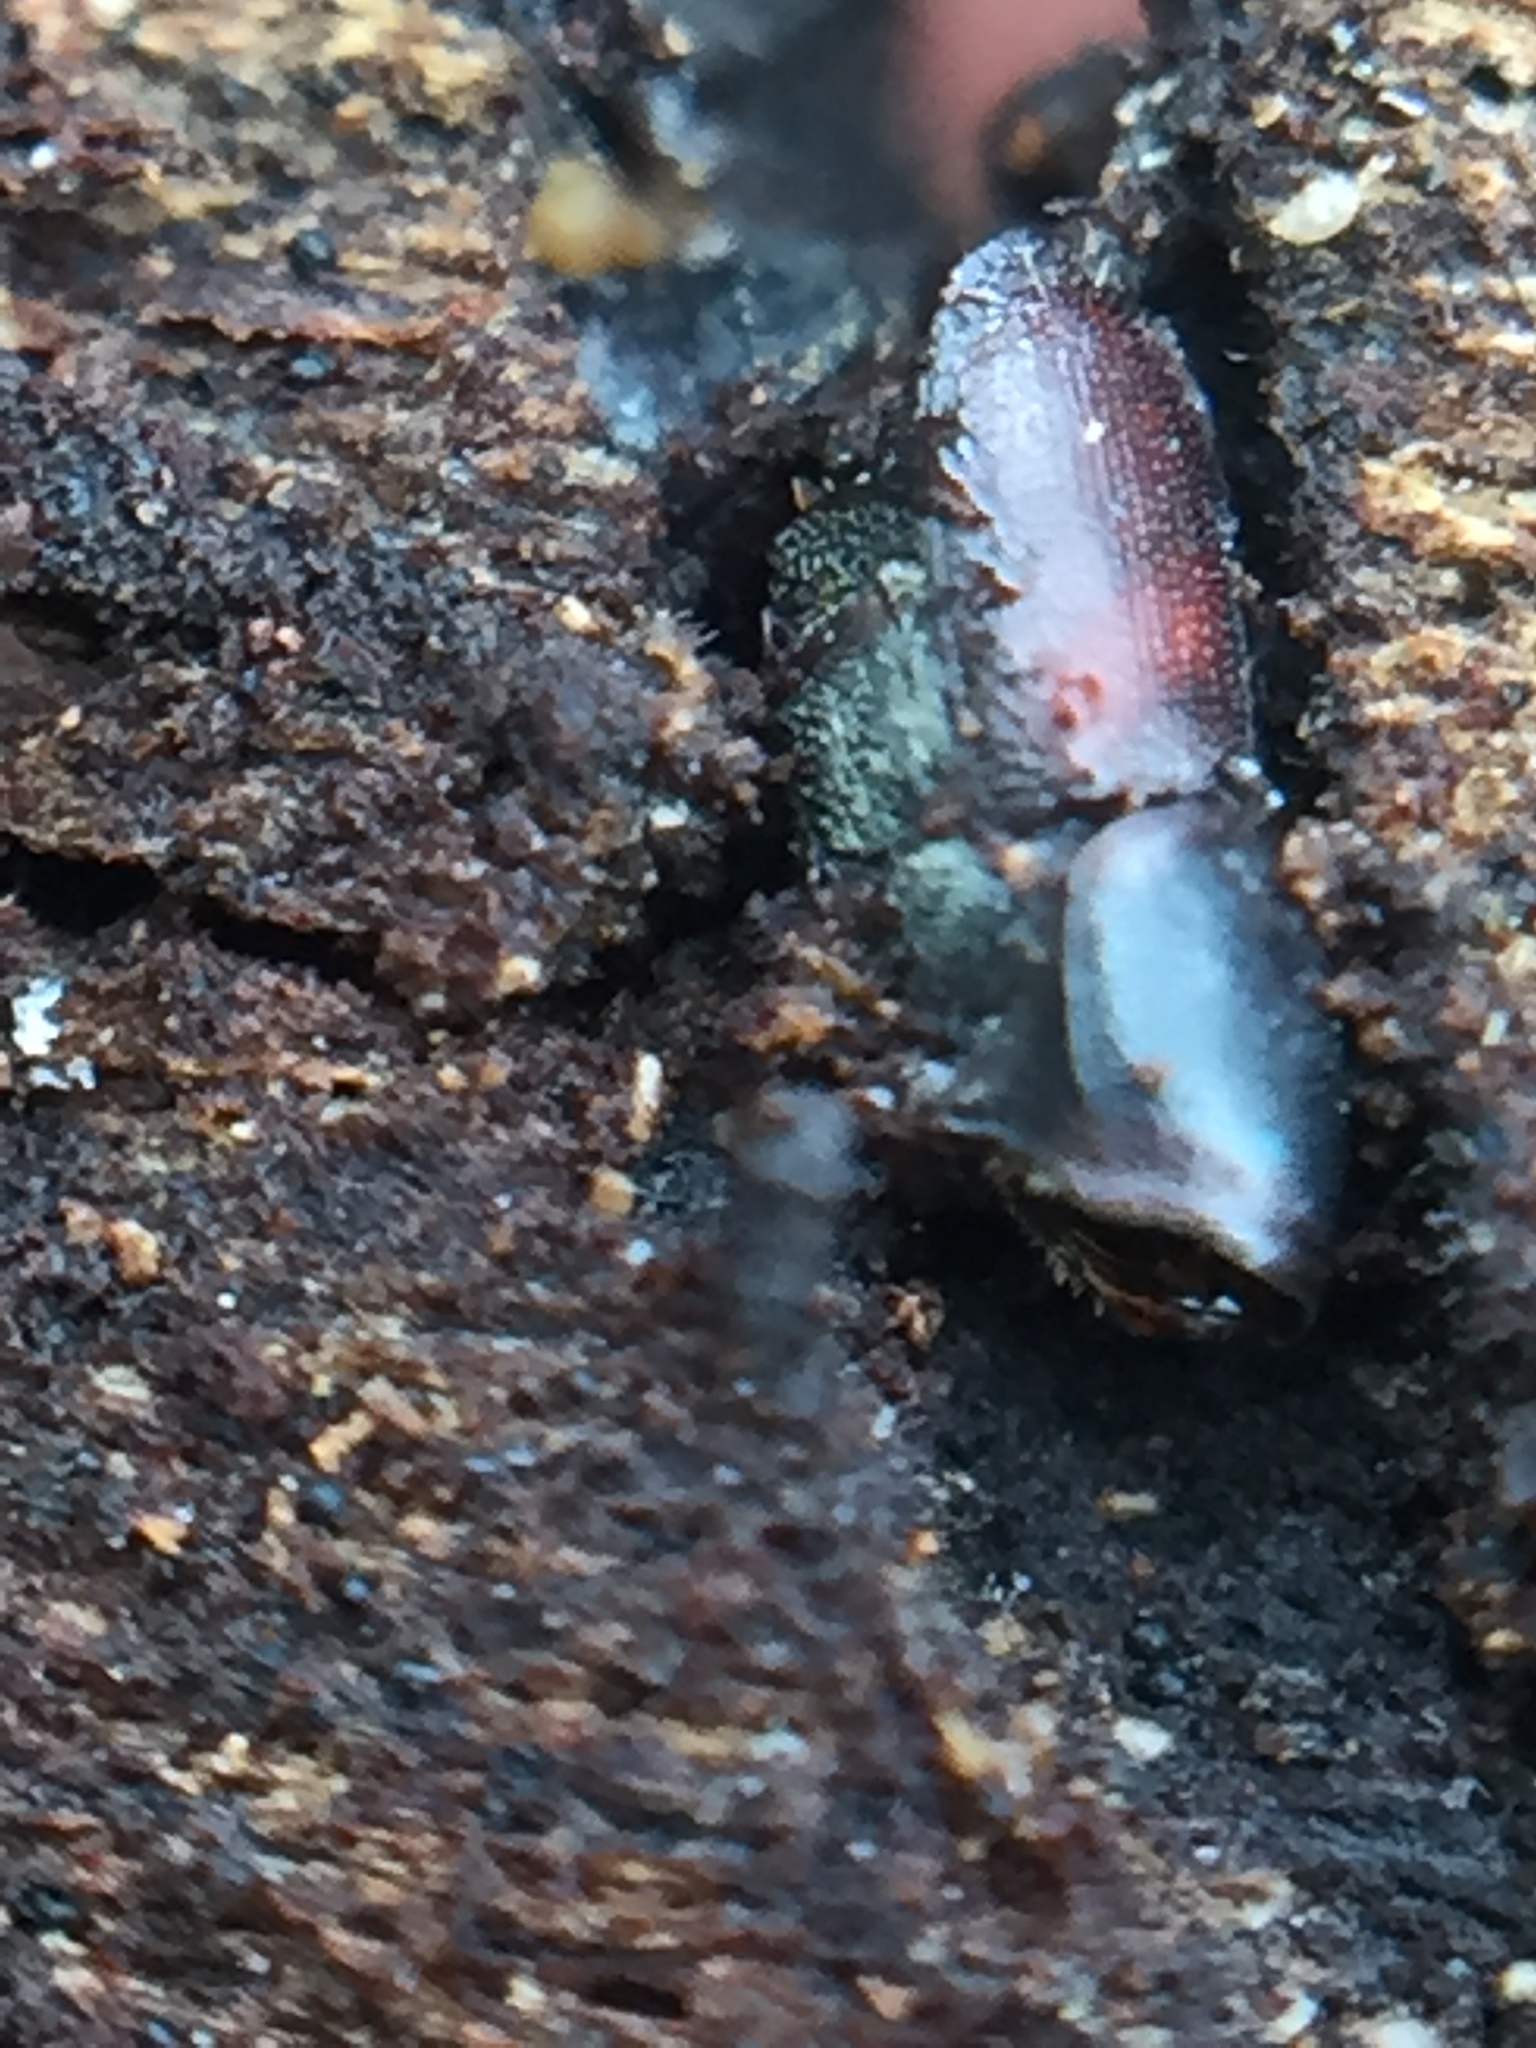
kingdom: Animalia
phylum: Arthropoda
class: Insecta
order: Coleoptera
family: Curculionidae
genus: Scolytus
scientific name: Scolytus multistriatus
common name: European elm bark beetle
